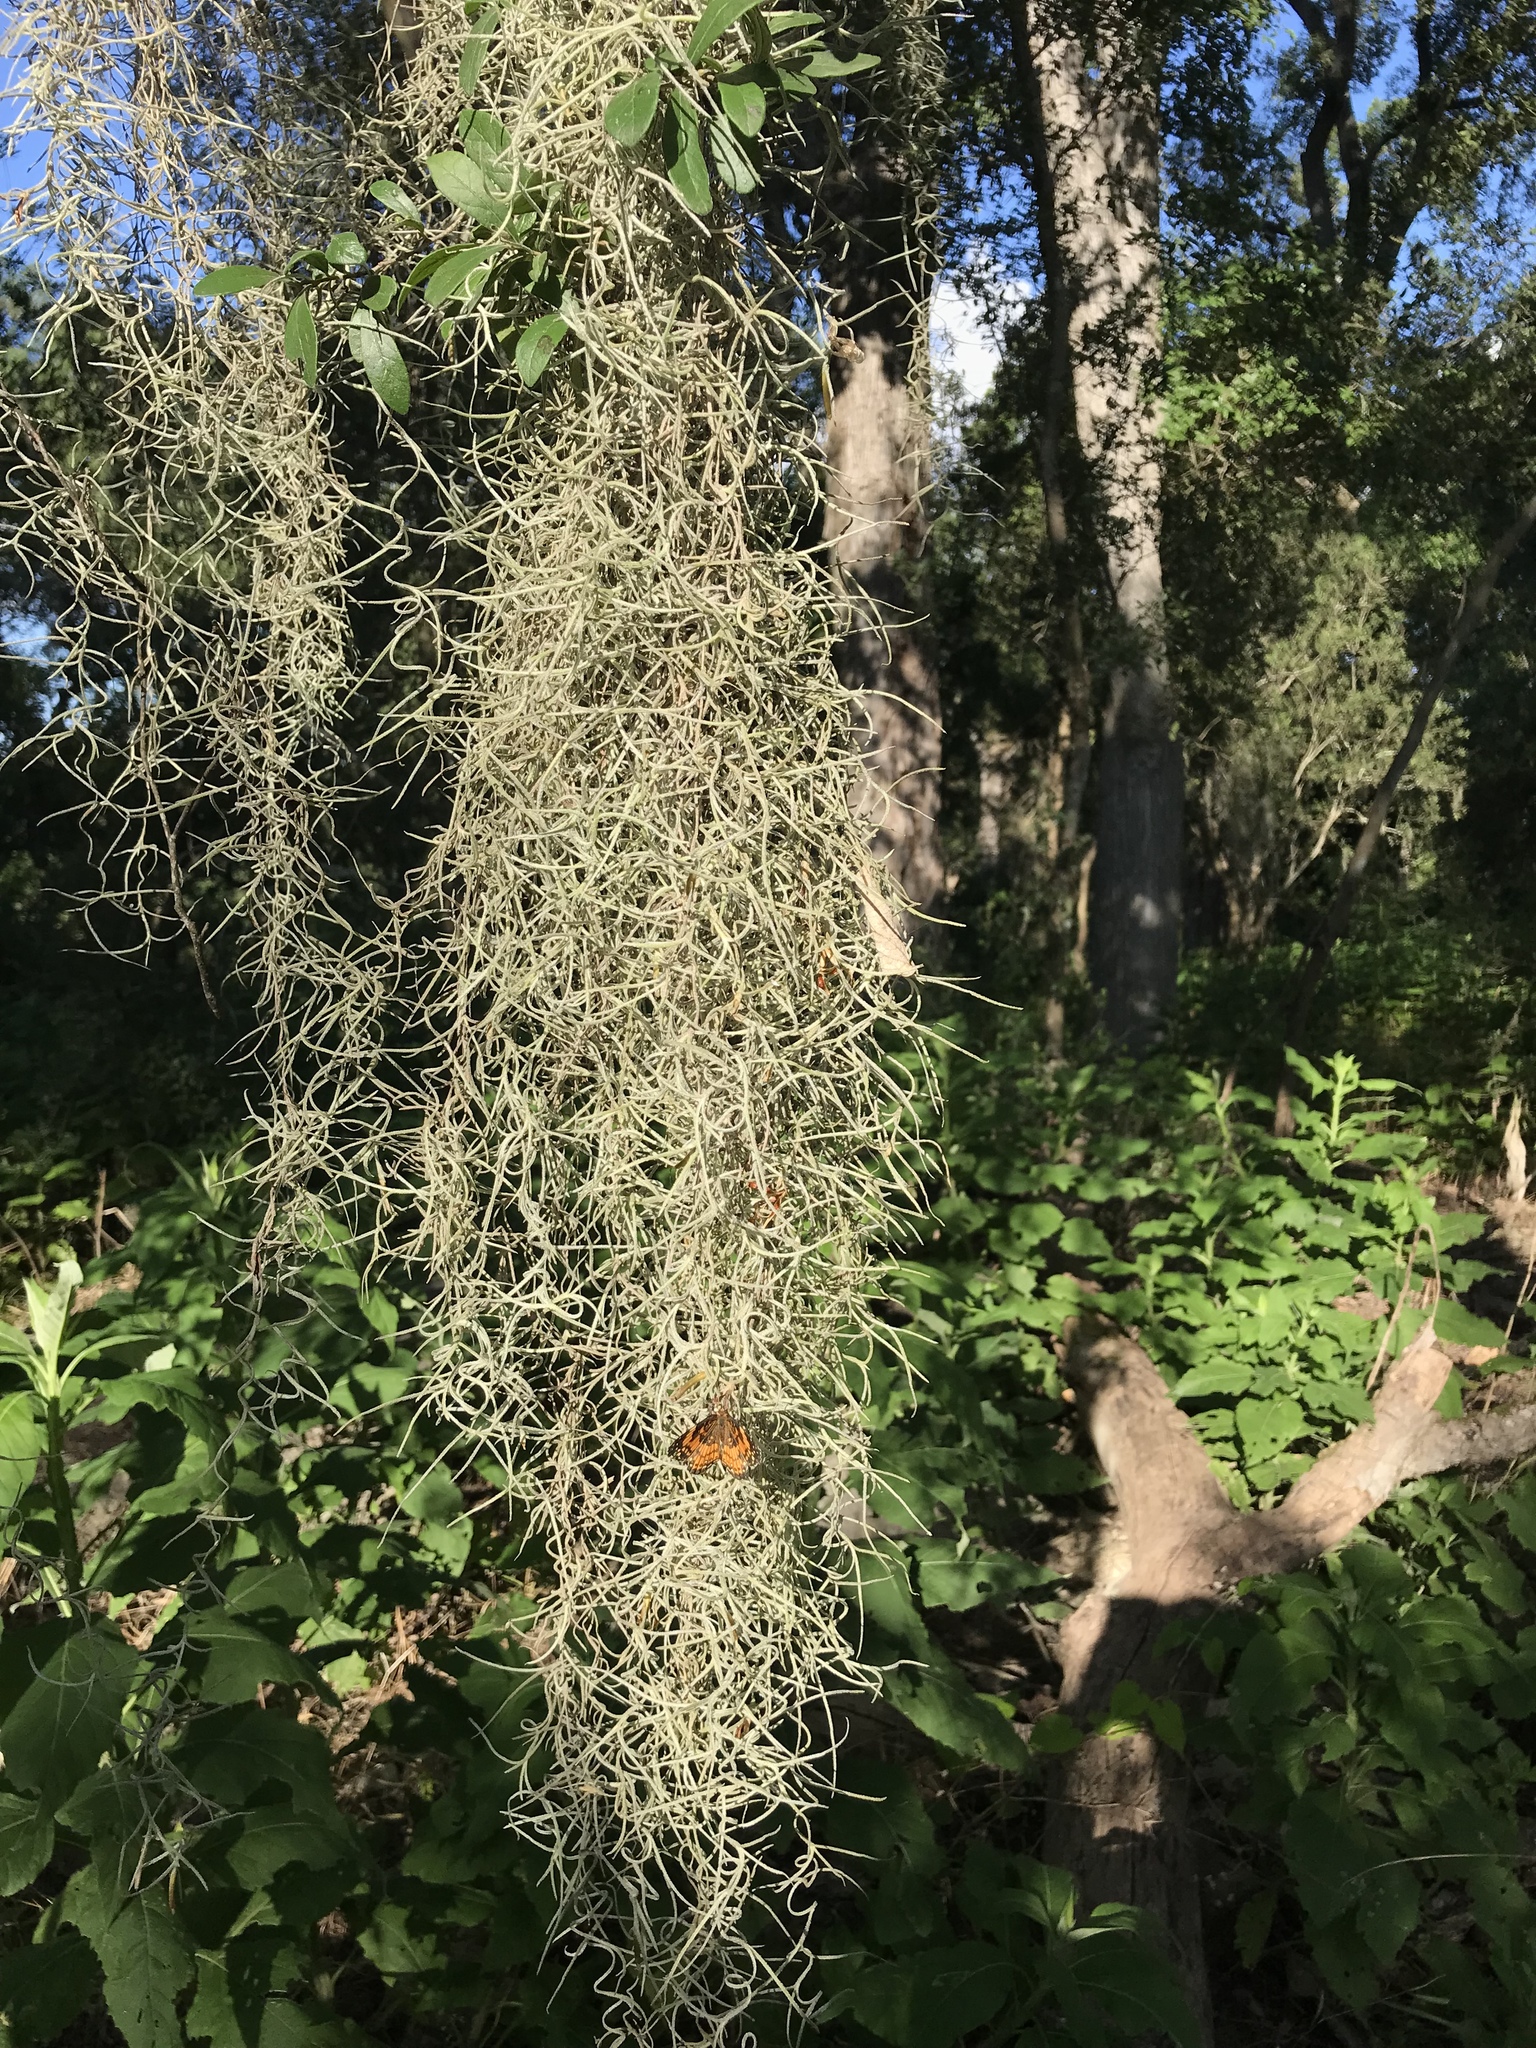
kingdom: Plantae
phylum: Tracheophyta
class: Liliopsida
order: Poales
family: Bromeliaceae
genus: Tillandsia
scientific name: Tillandsia usneoides
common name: Spanish moss
